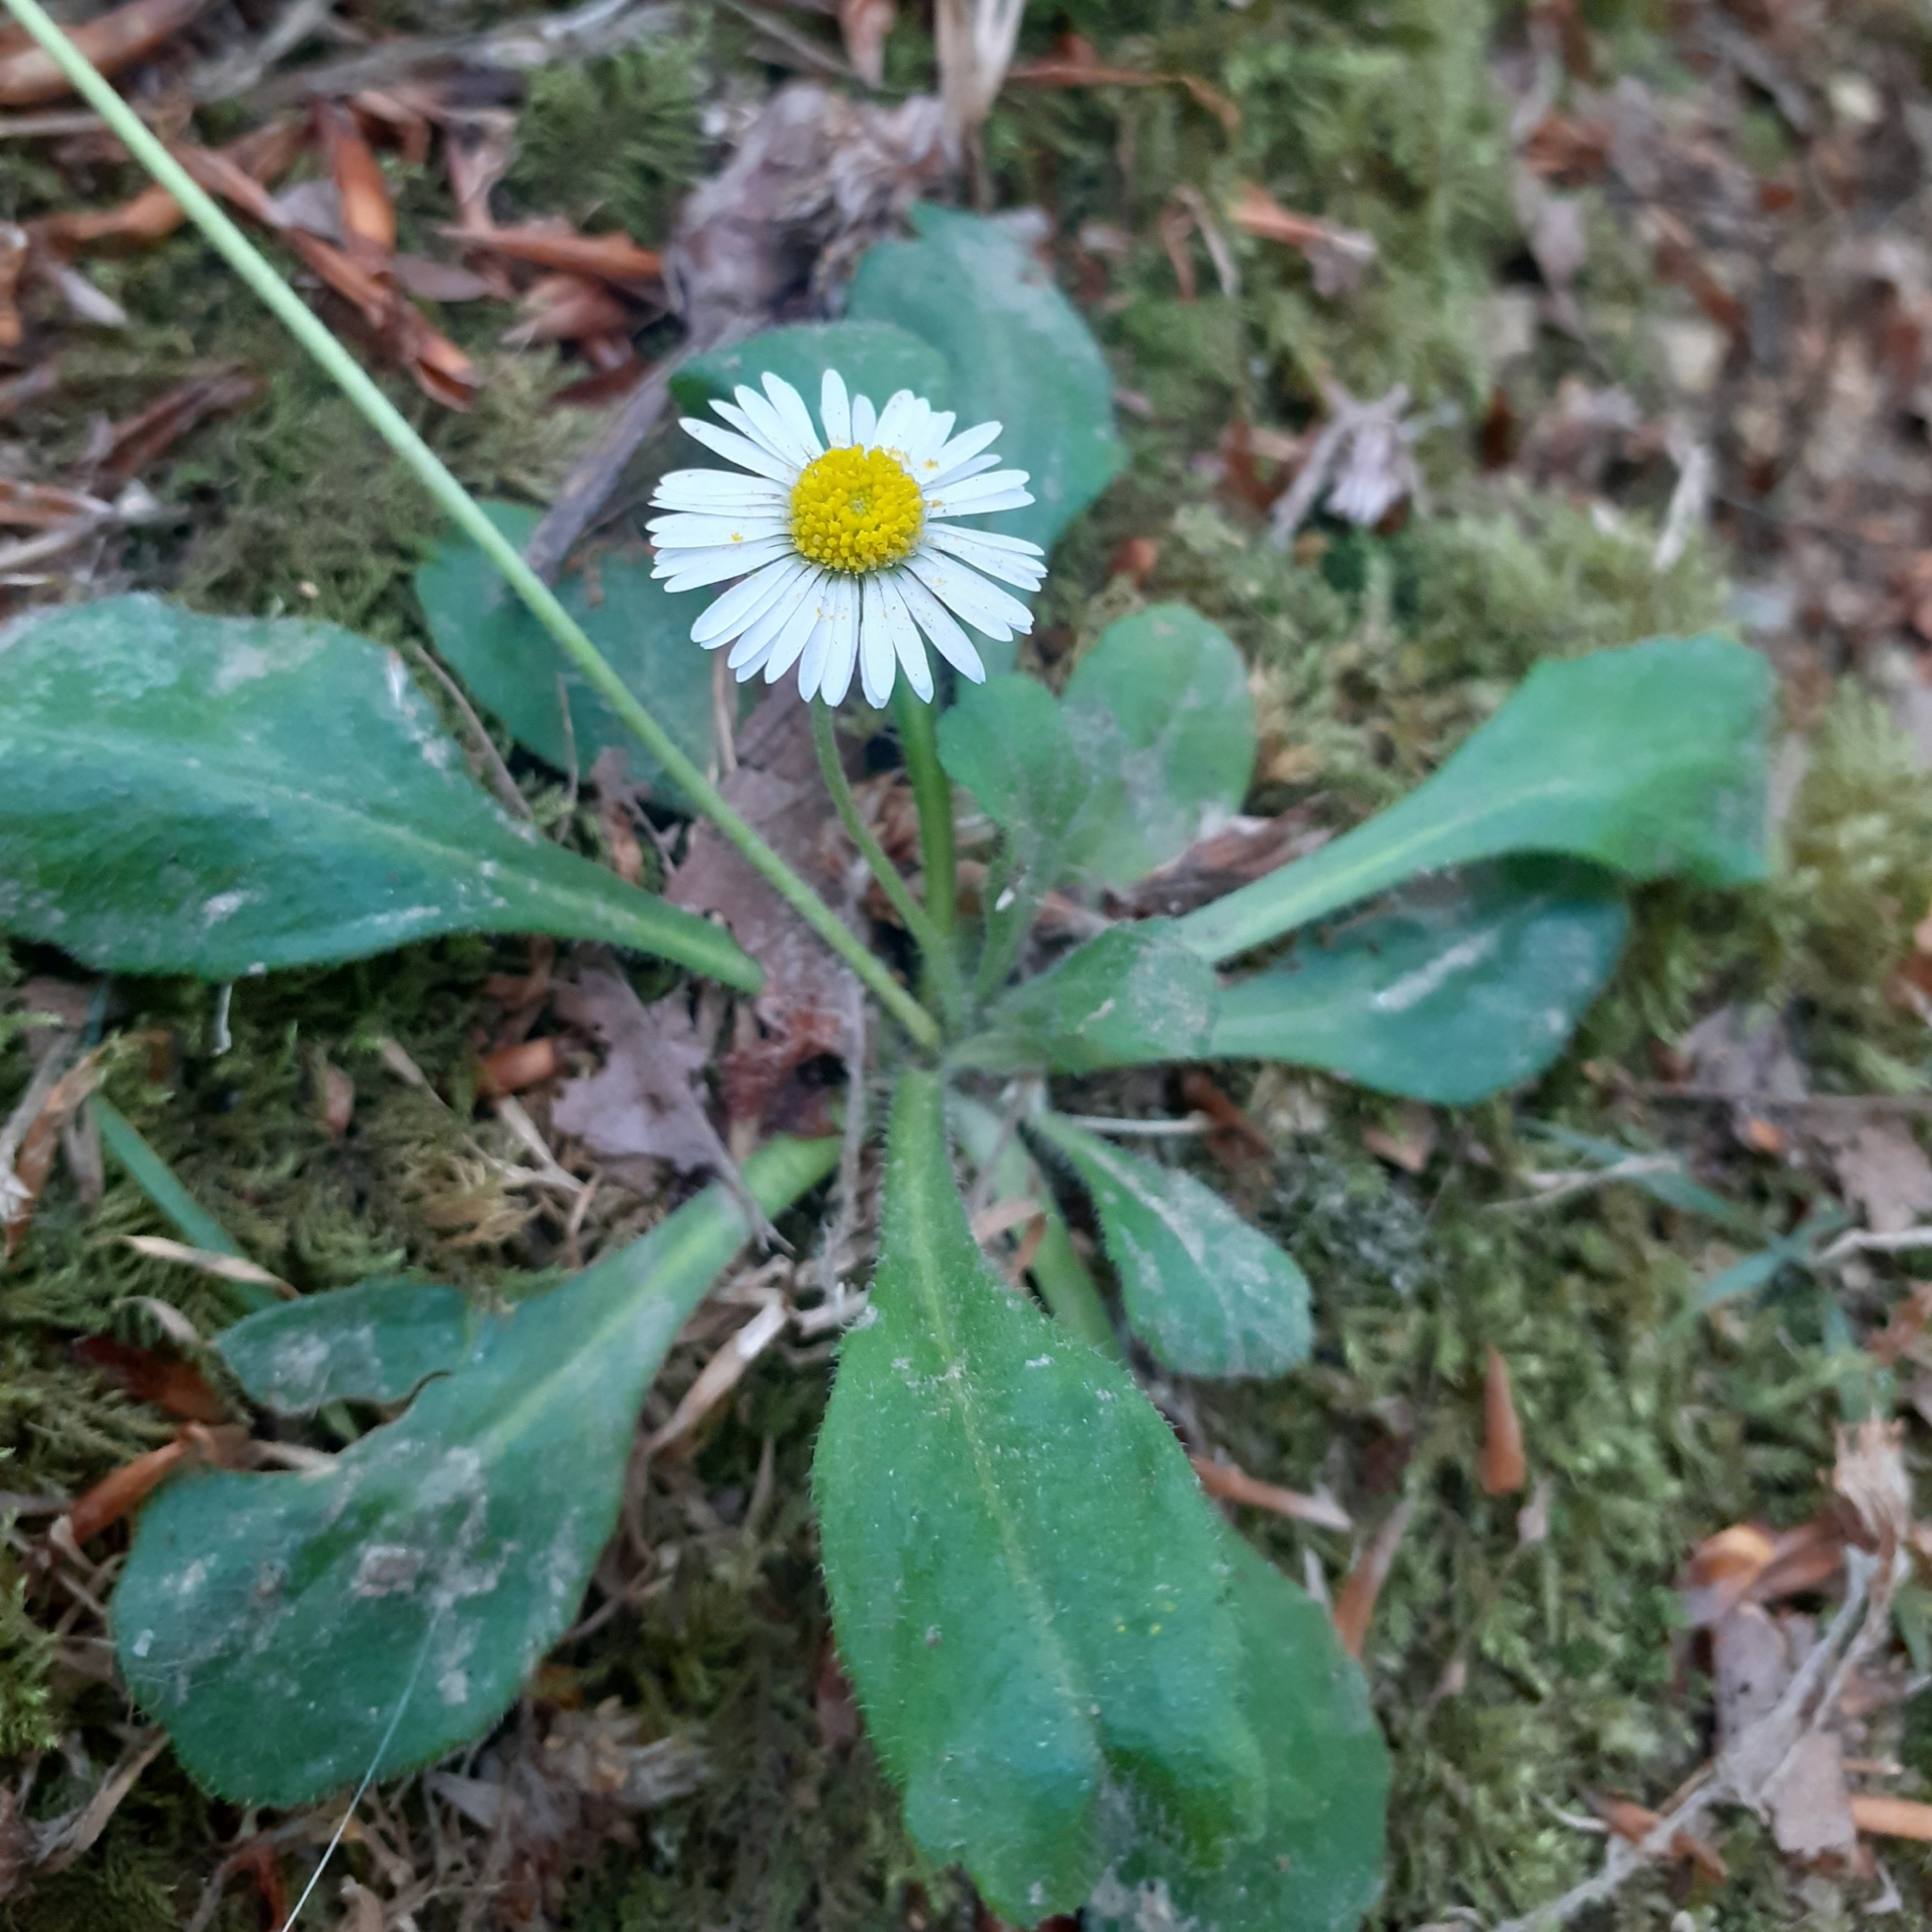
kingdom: Plantae
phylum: Tracheophyta
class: Magnoliopsida
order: Asterales
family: Asteraceae
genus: Bellis
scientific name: Bellis perennis
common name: Lawndaisy
